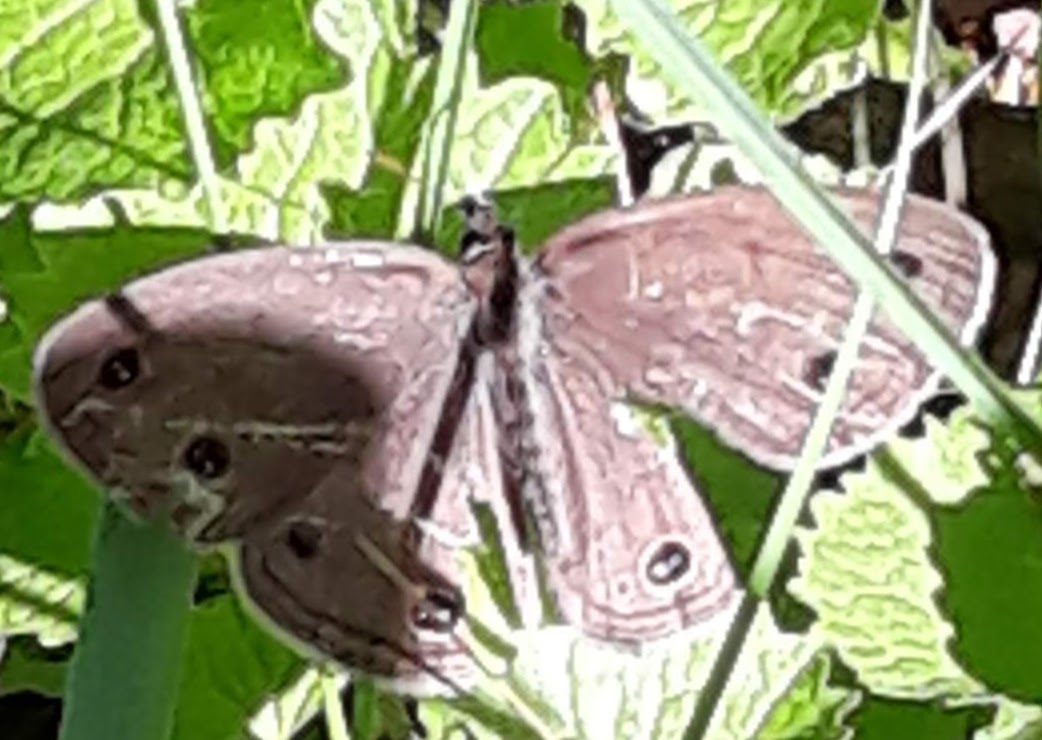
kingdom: Animalia
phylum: Arthropoda
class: Insecta
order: Lepidoptera
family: Nymphalidae
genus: Euptychia
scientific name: Euptychia cymela
